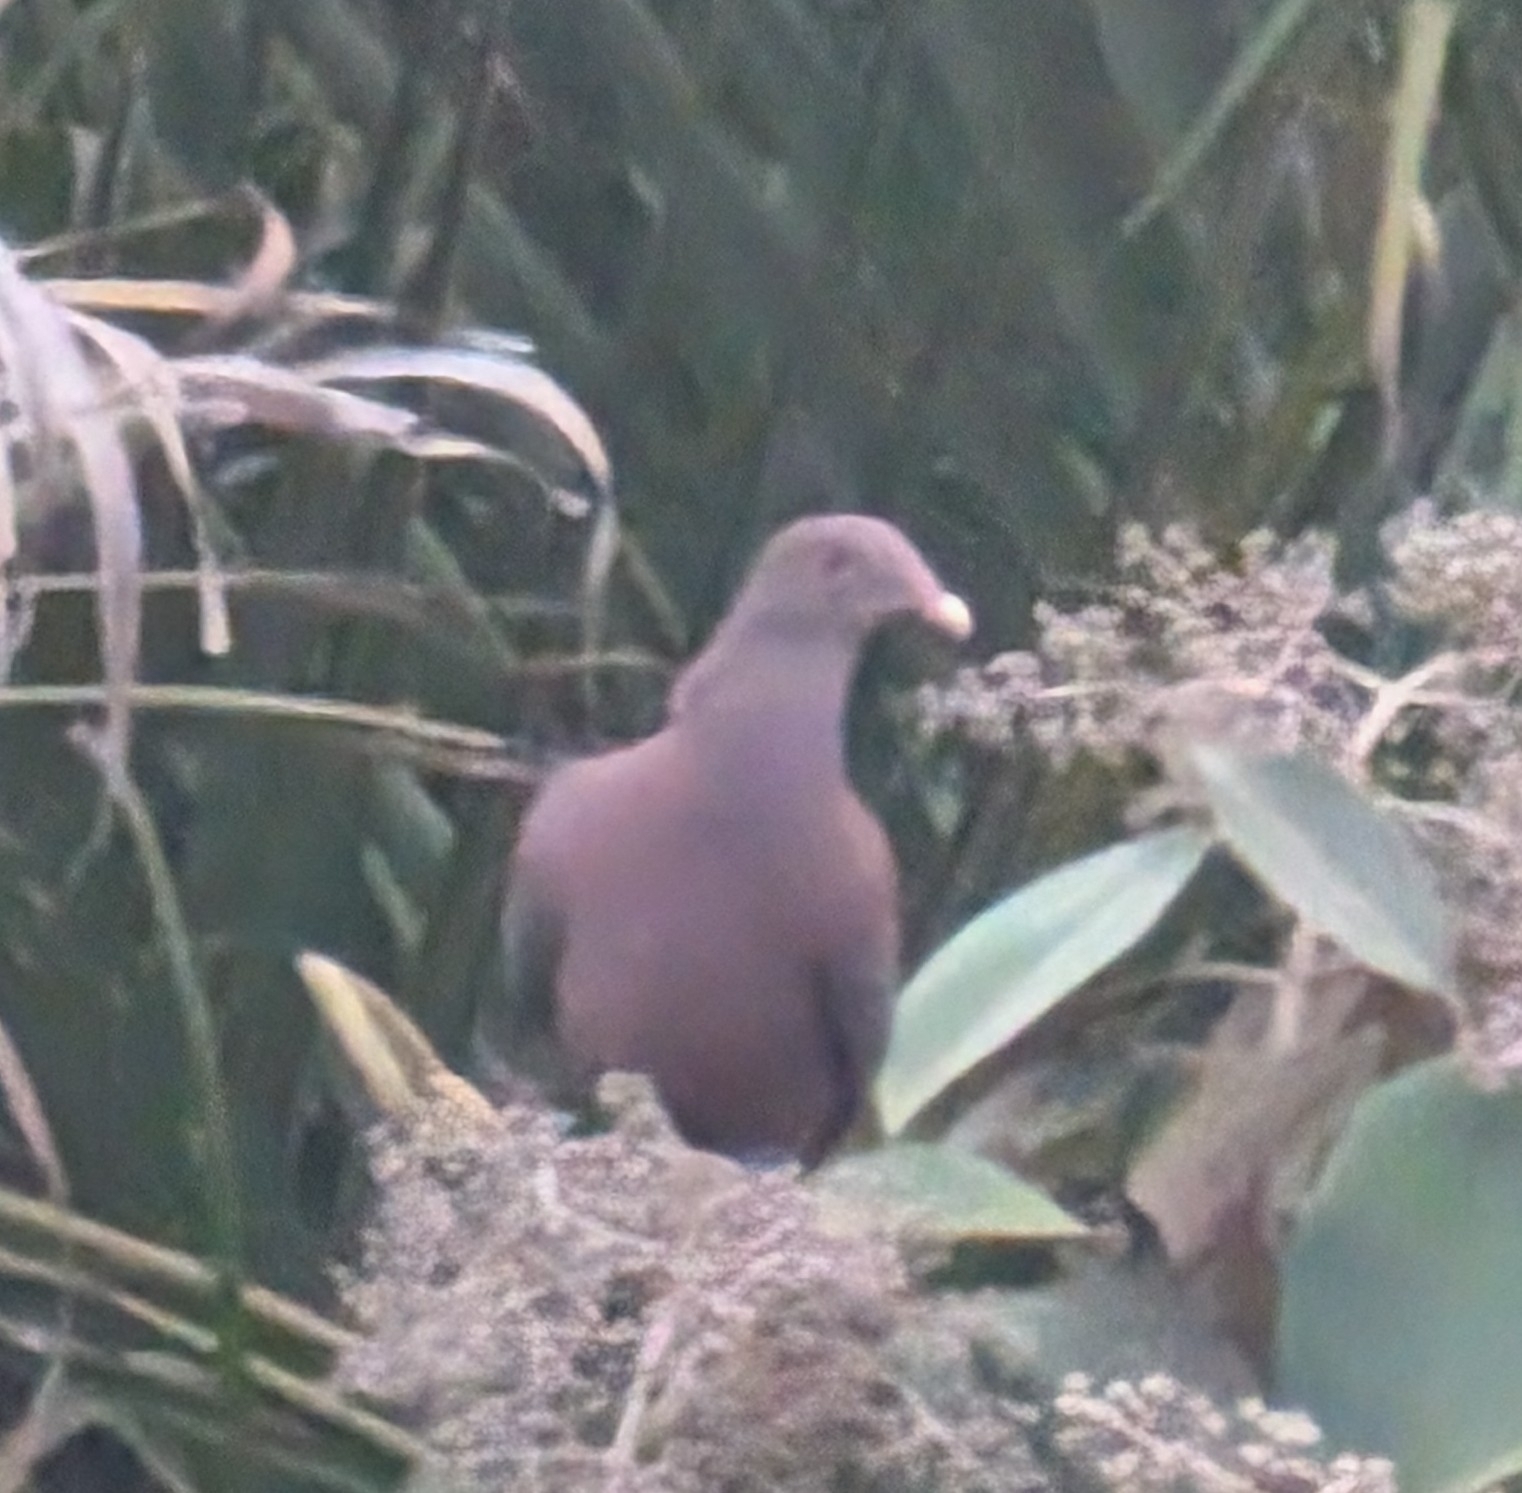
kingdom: Animalia
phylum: Chordata
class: Aves
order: Columbiformes
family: Columbidae
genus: Patagioenas
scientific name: Patagioenas flavirostris
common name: Red-billed pigeon
